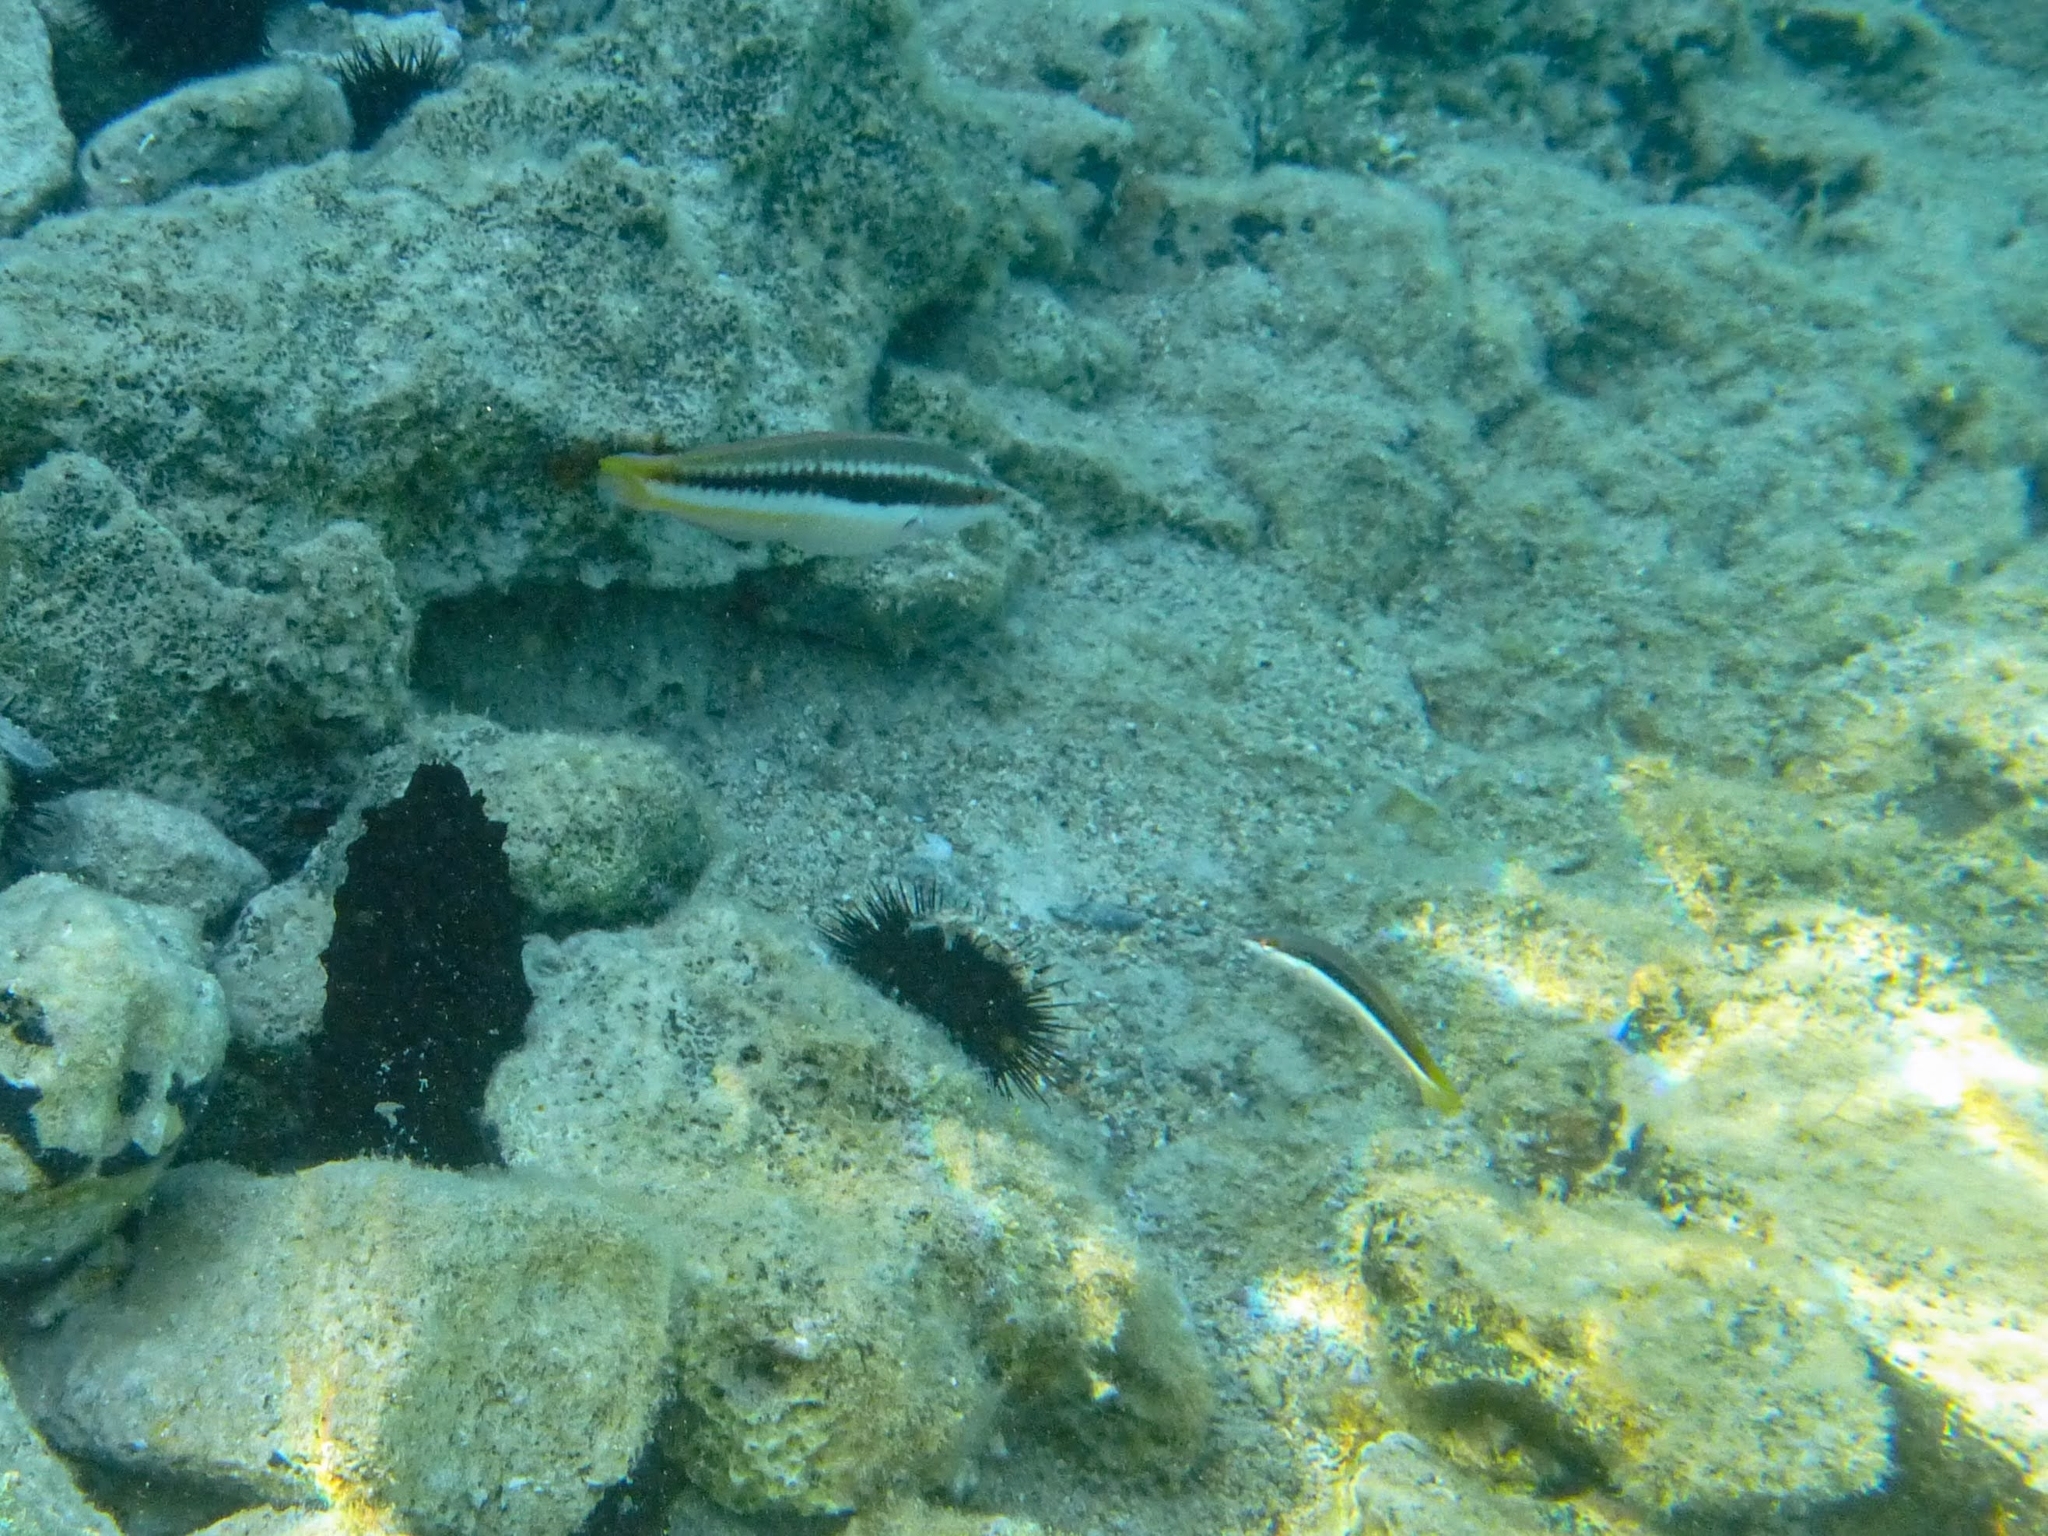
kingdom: Animalia
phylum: Chordata
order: Perciformes
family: Labridae
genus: Coris
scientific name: Coris julis
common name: Rainbow wrasse
